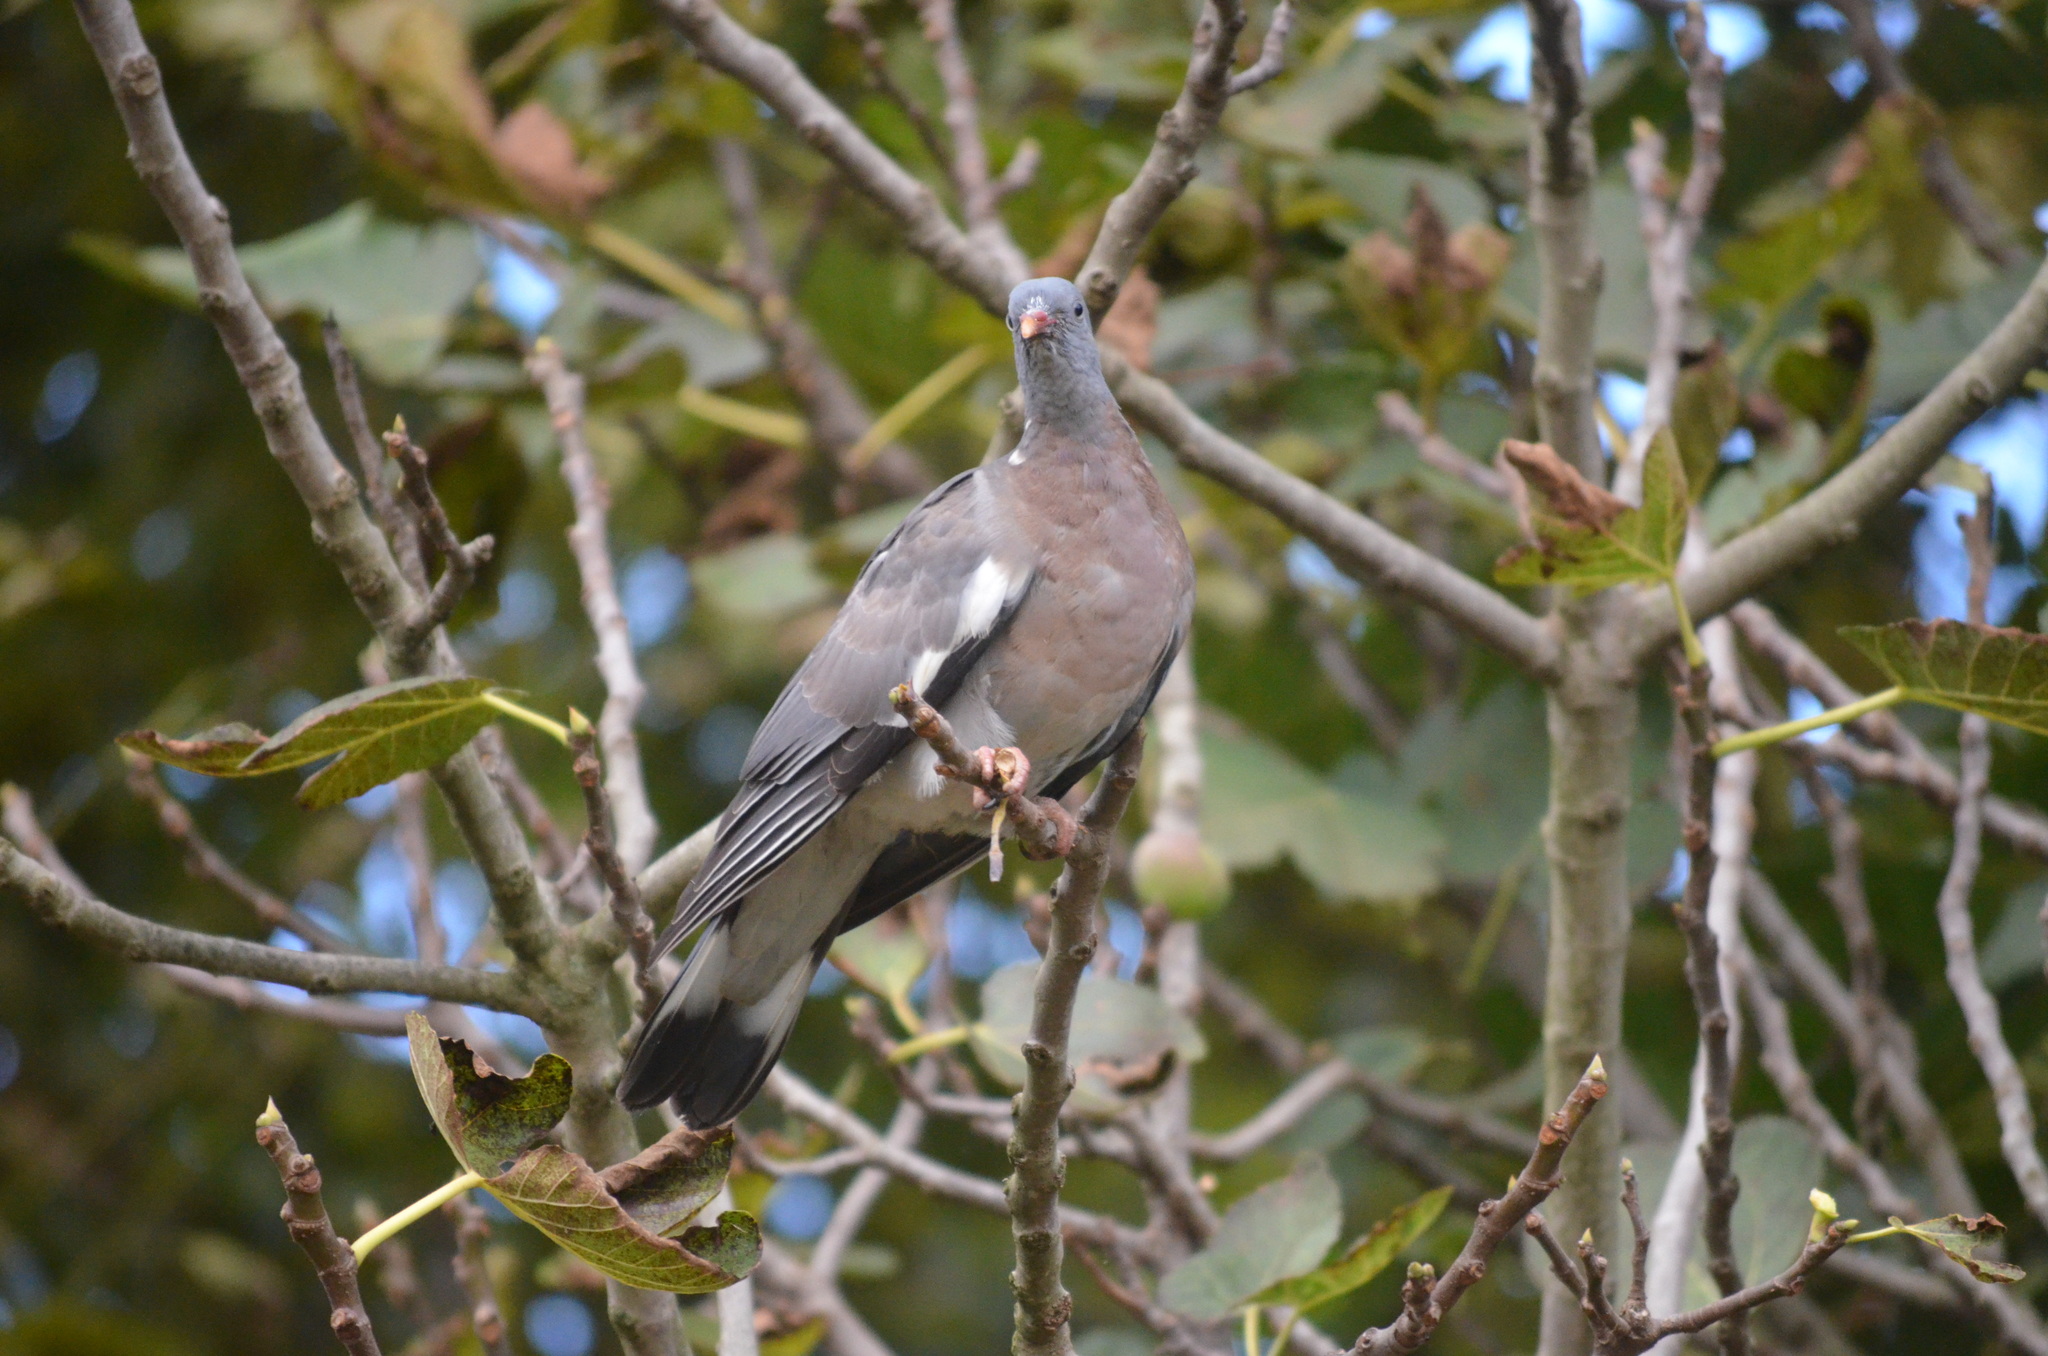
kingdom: Animalia
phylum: Chordata
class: Aves
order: Columbiformes
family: Columbidae
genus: Columba
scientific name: Columba palumbus
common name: Common wood pigeon
